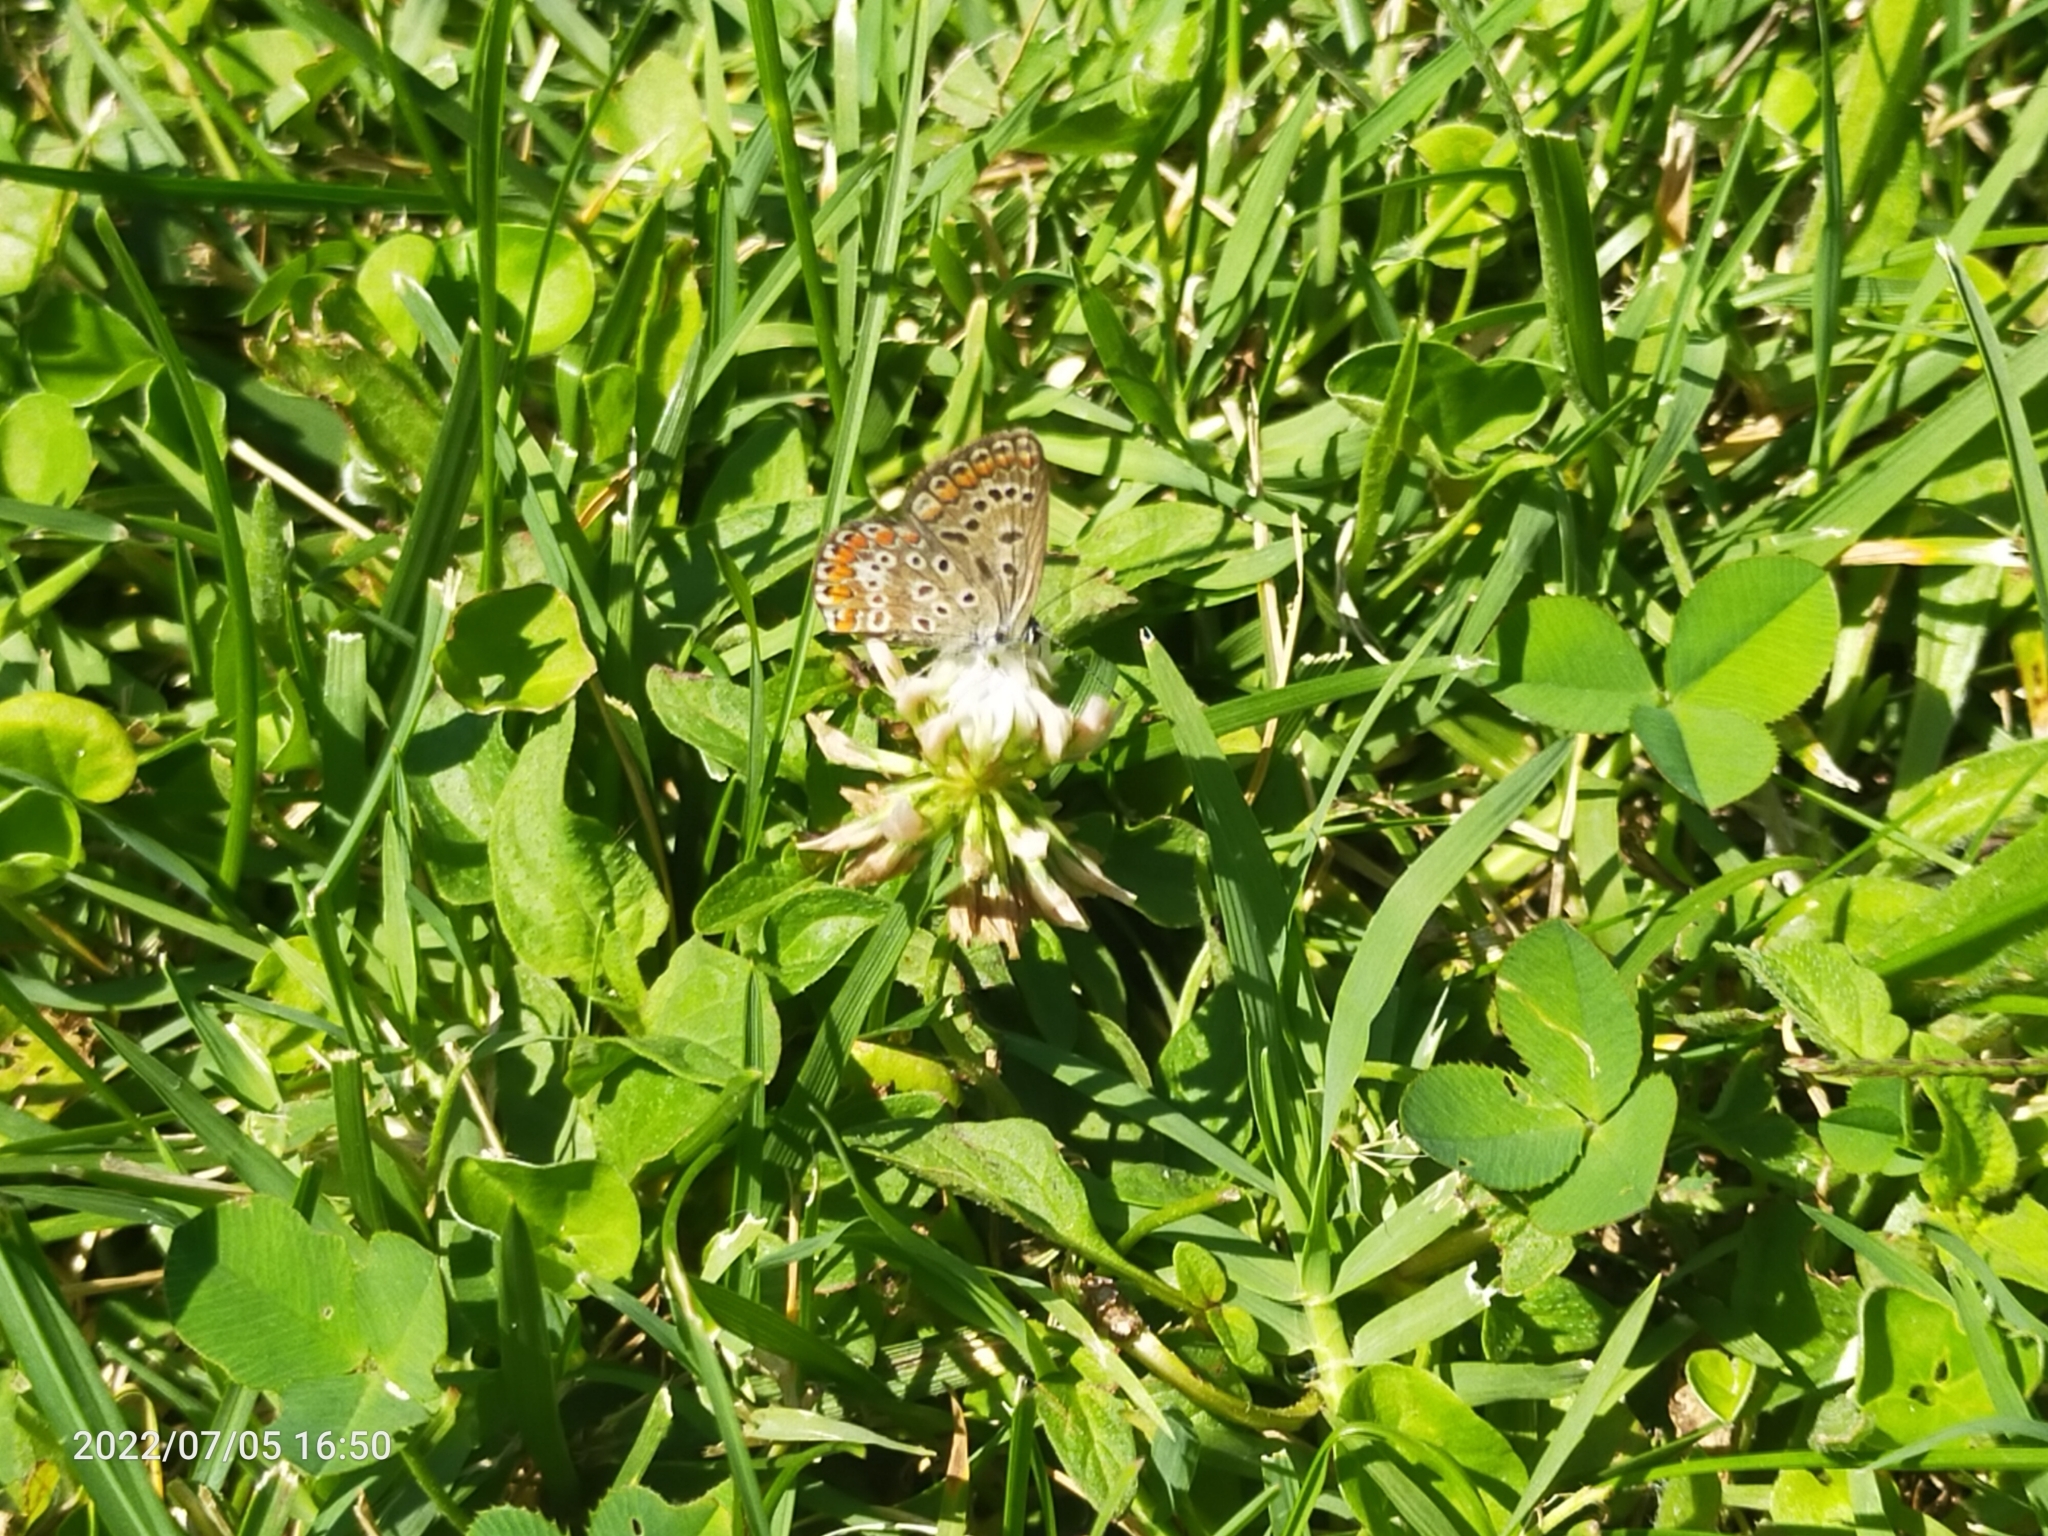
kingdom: Animalia
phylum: Arthropoda
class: Insecta
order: Lepidoptera
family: Lycaenidae
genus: Polyommatus
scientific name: Polyommatus icarus
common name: Common blue
